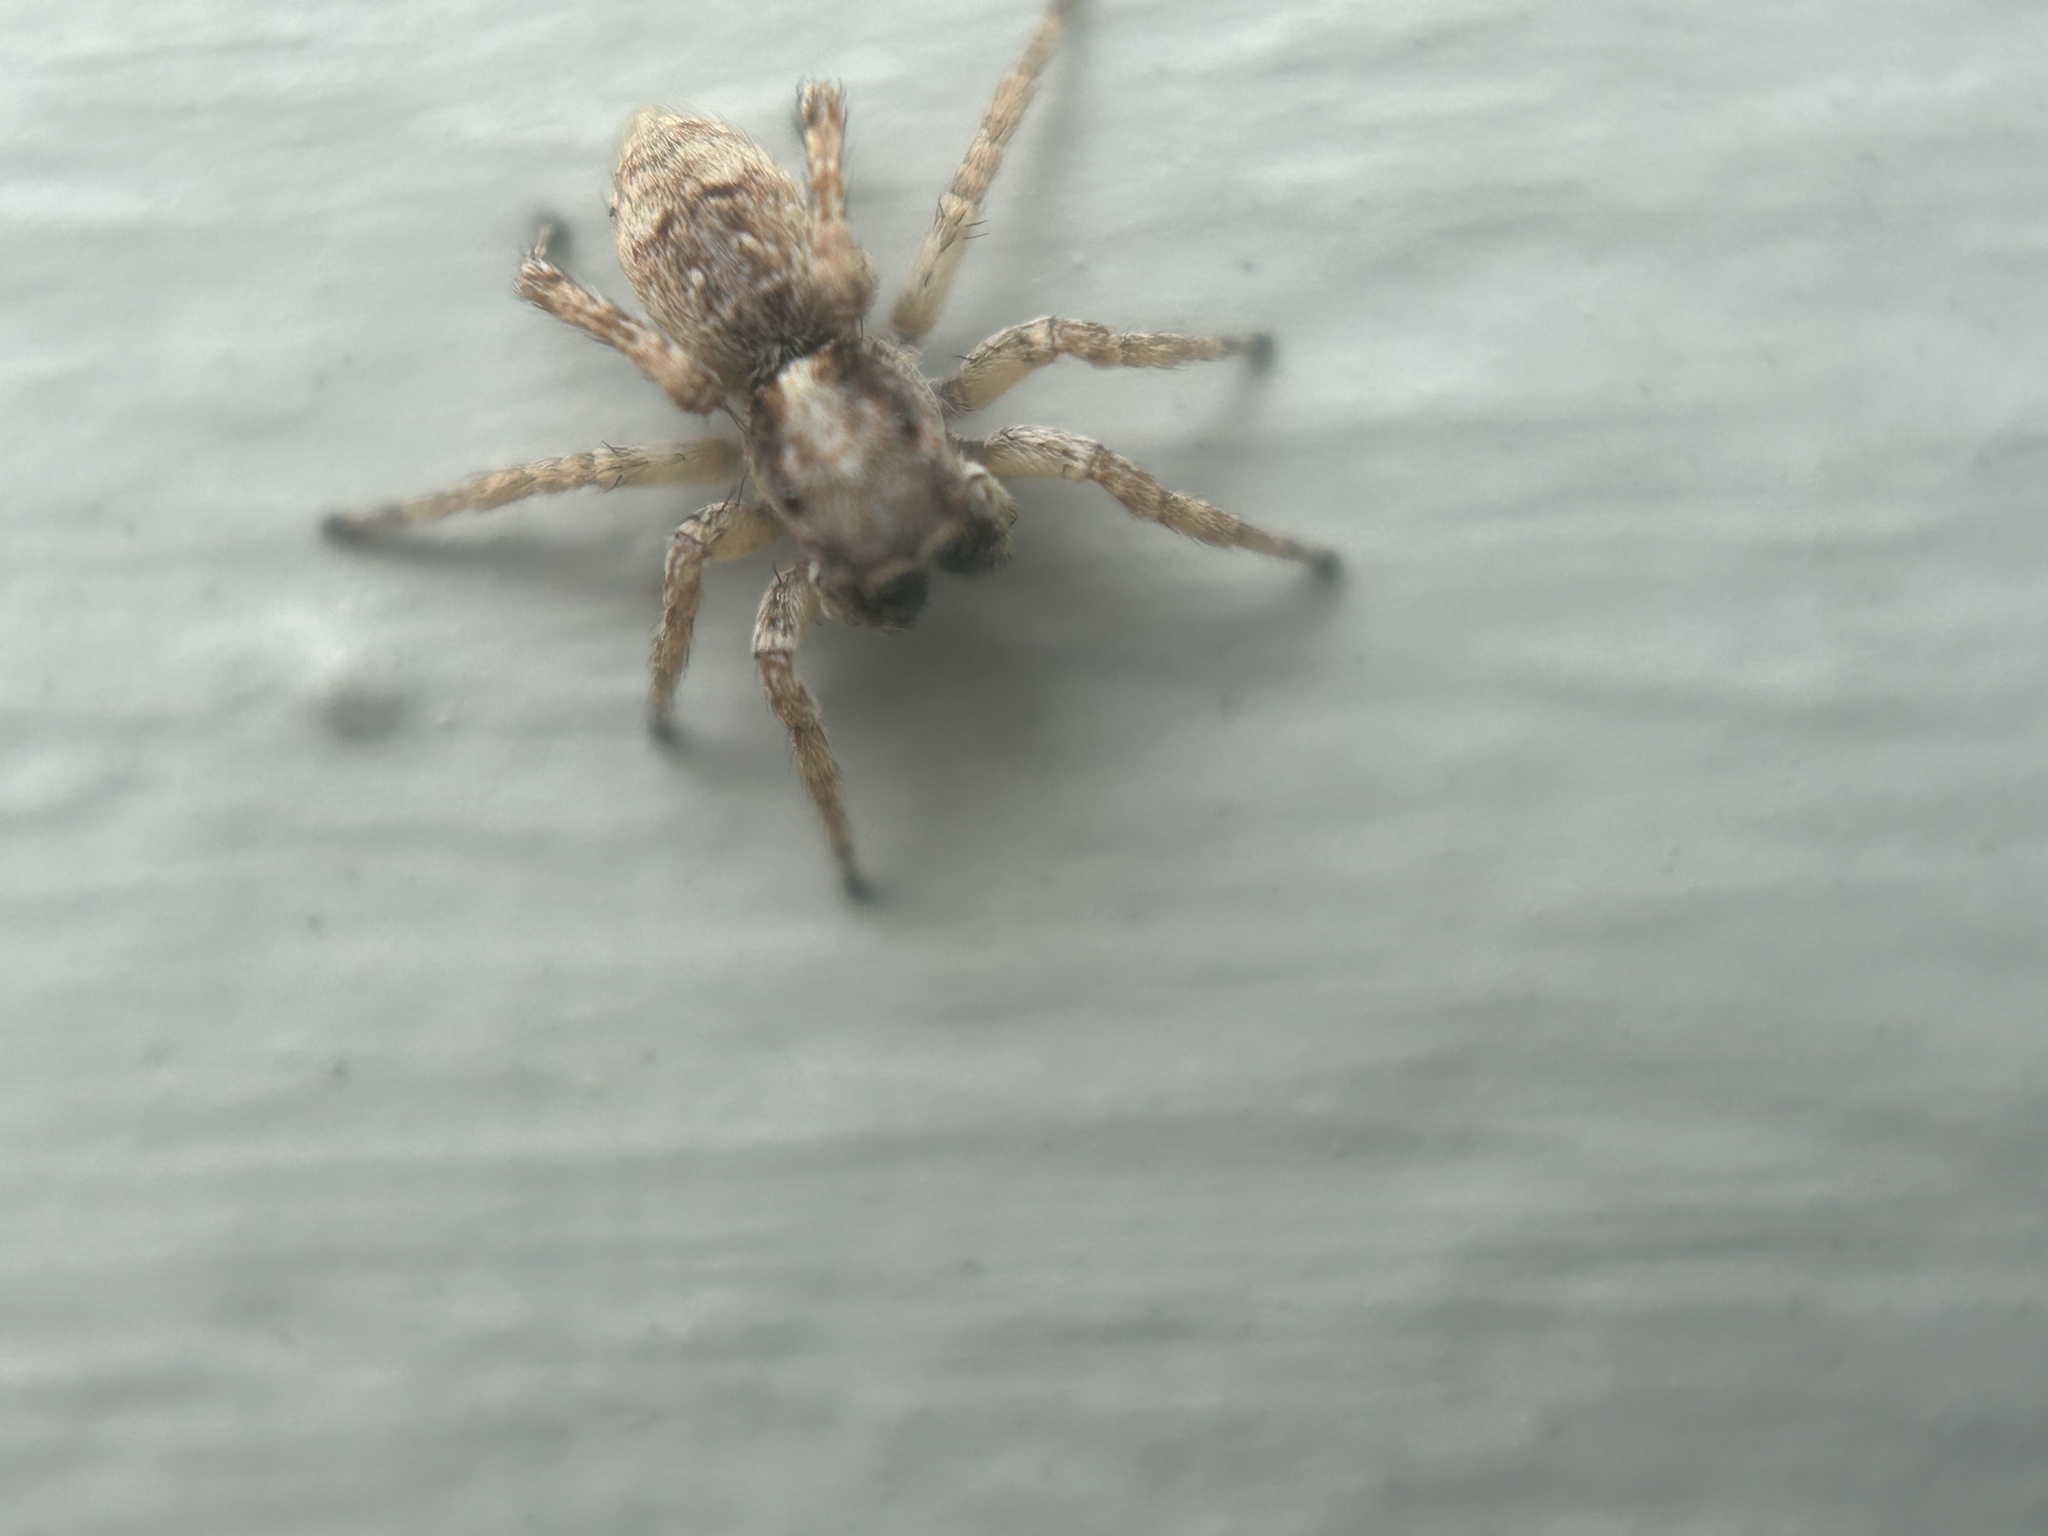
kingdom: Animalia
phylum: Arthropoda
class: Arachnida
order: Araneae
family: Salticidae
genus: Attulus
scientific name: Attulus fasciger
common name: Asiatic wall jumping spider
